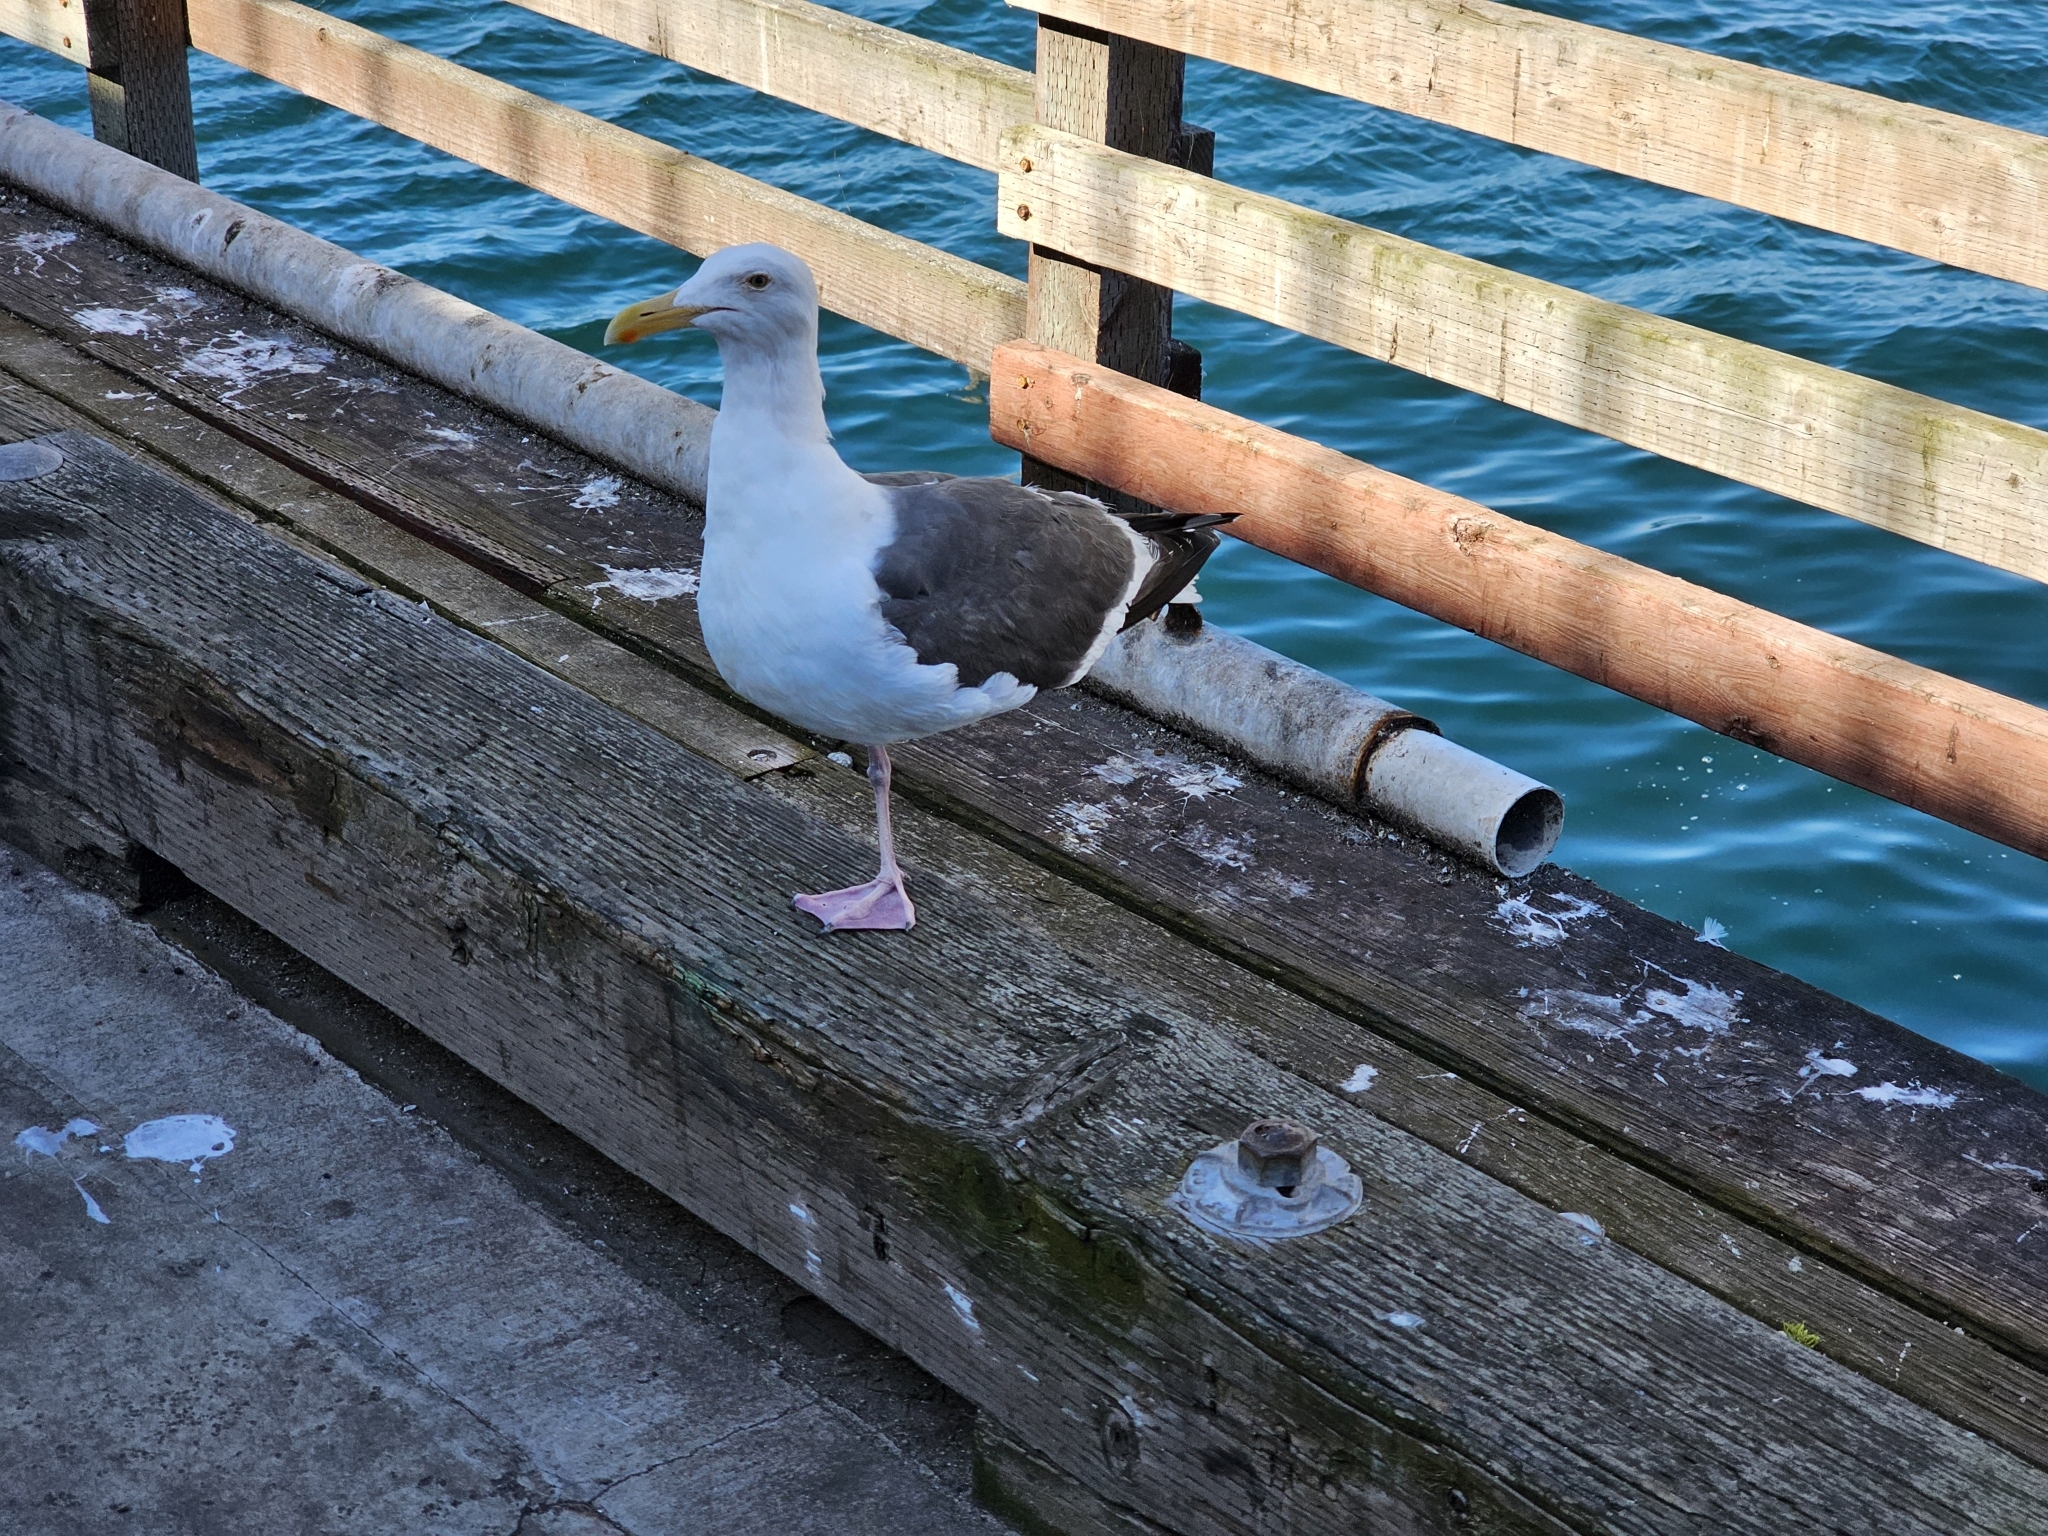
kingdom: Animalia
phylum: Chordata
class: Aves
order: Charadriiformes
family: Laridae
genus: Larus
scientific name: Larus occidentalis
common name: Western gull
